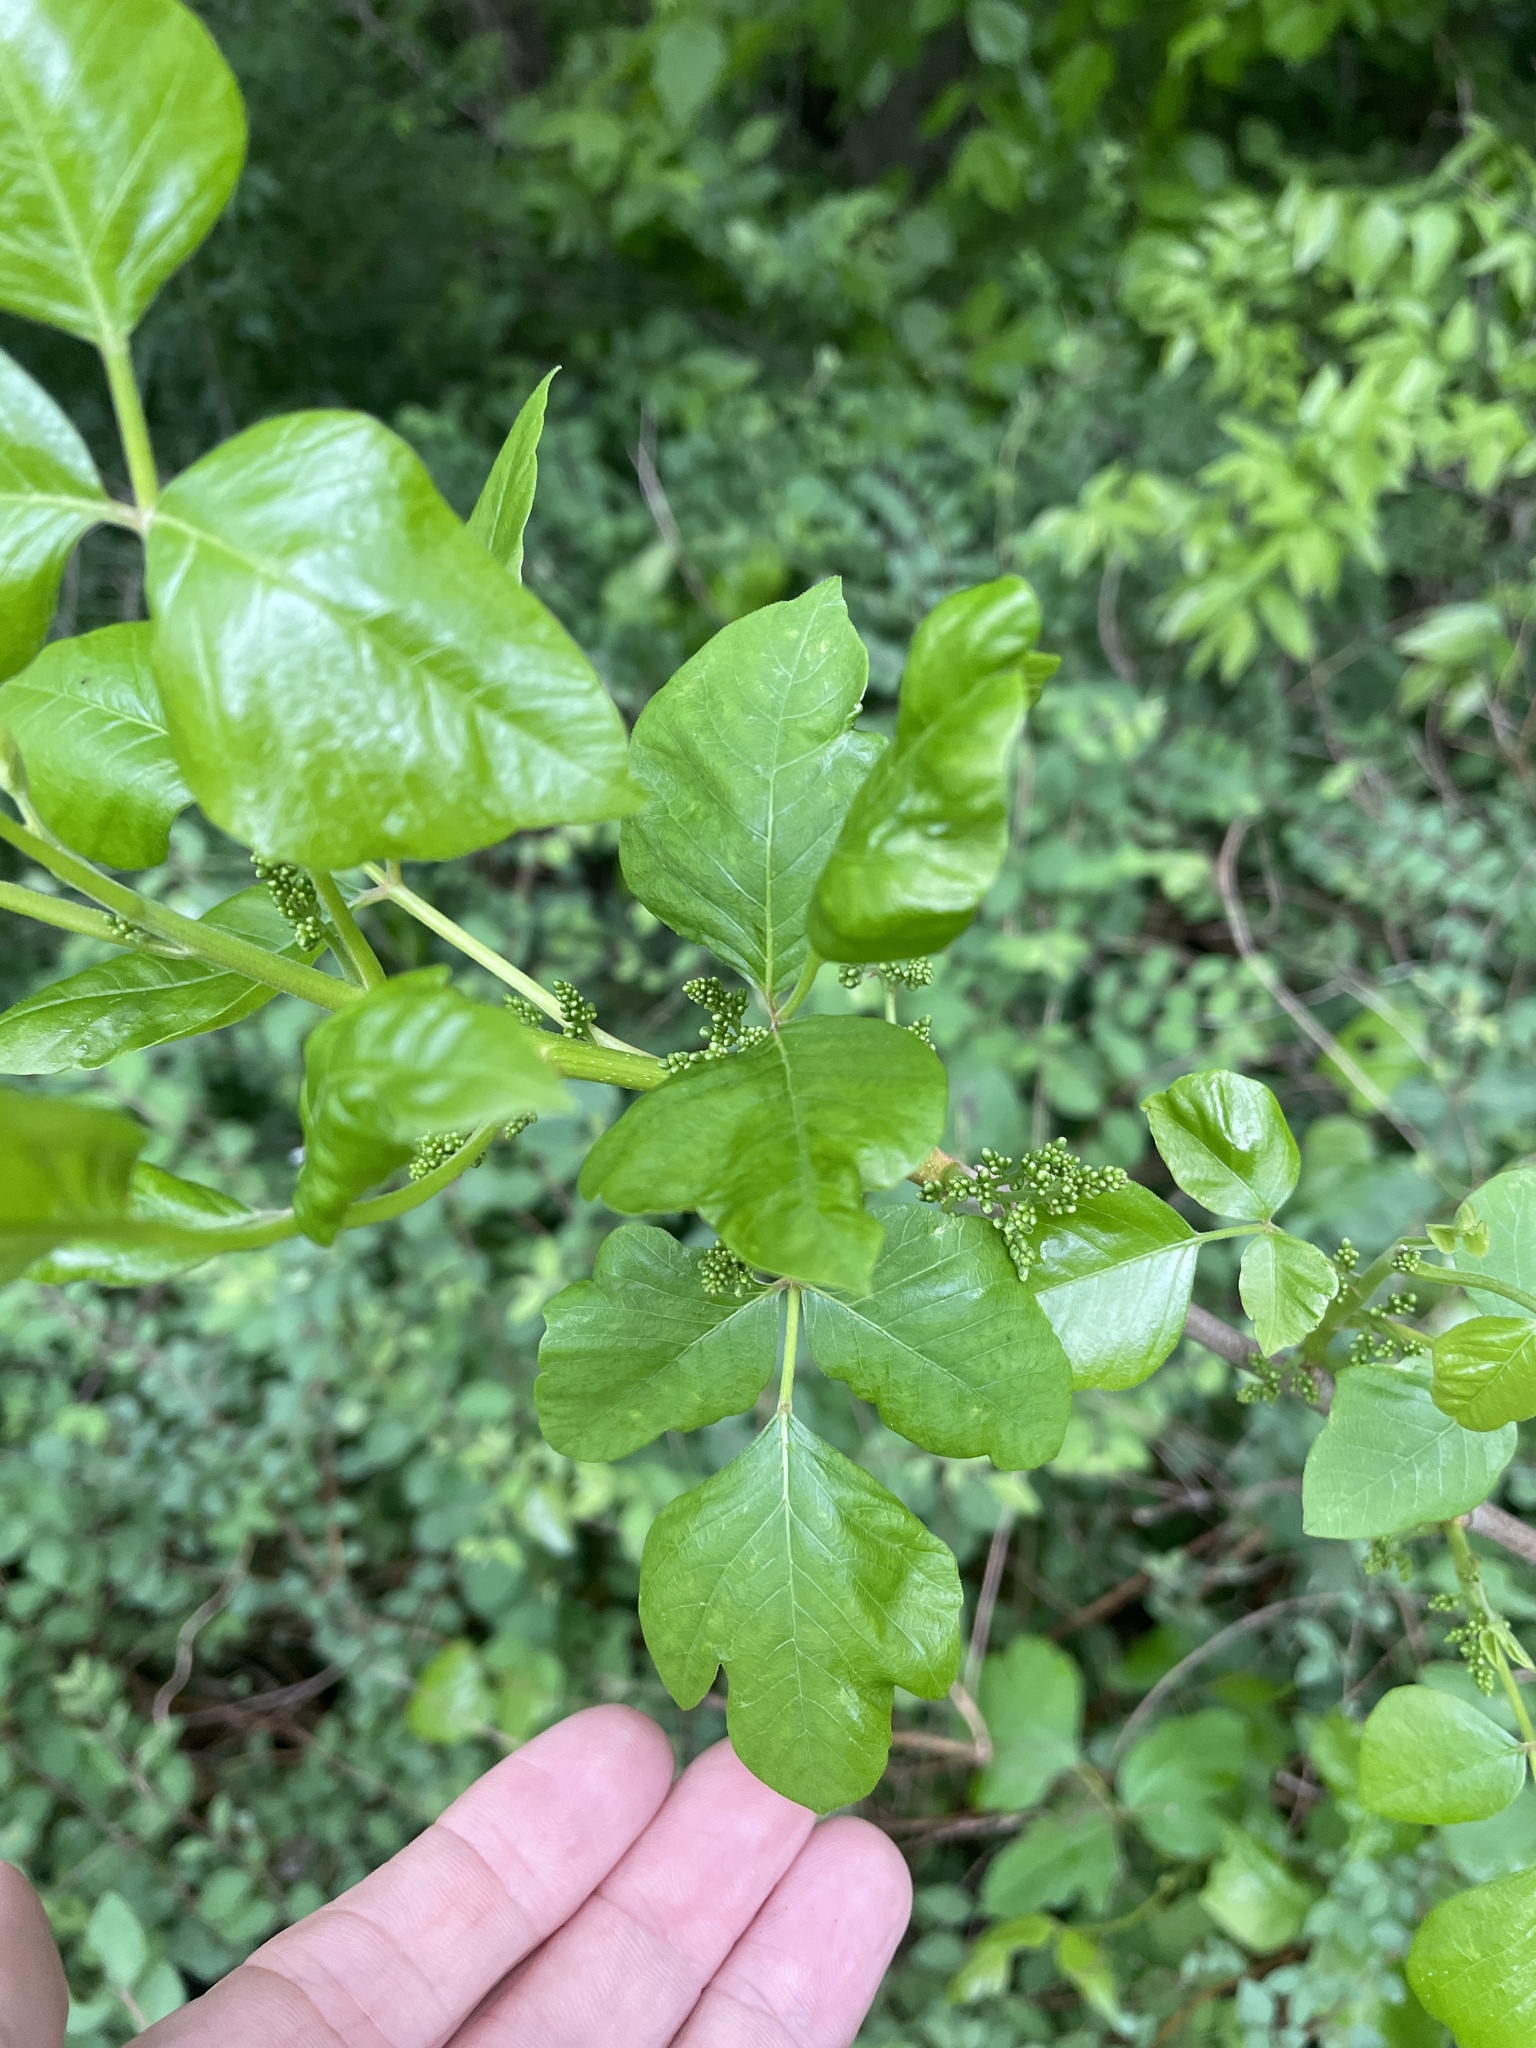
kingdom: Plantae
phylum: Tracheophyta
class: Magnoliopsida
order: Sapindales
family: Anacardiaceae
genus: Toxicodendron
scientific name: Toxicodendron radicans
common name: Poison ivy
